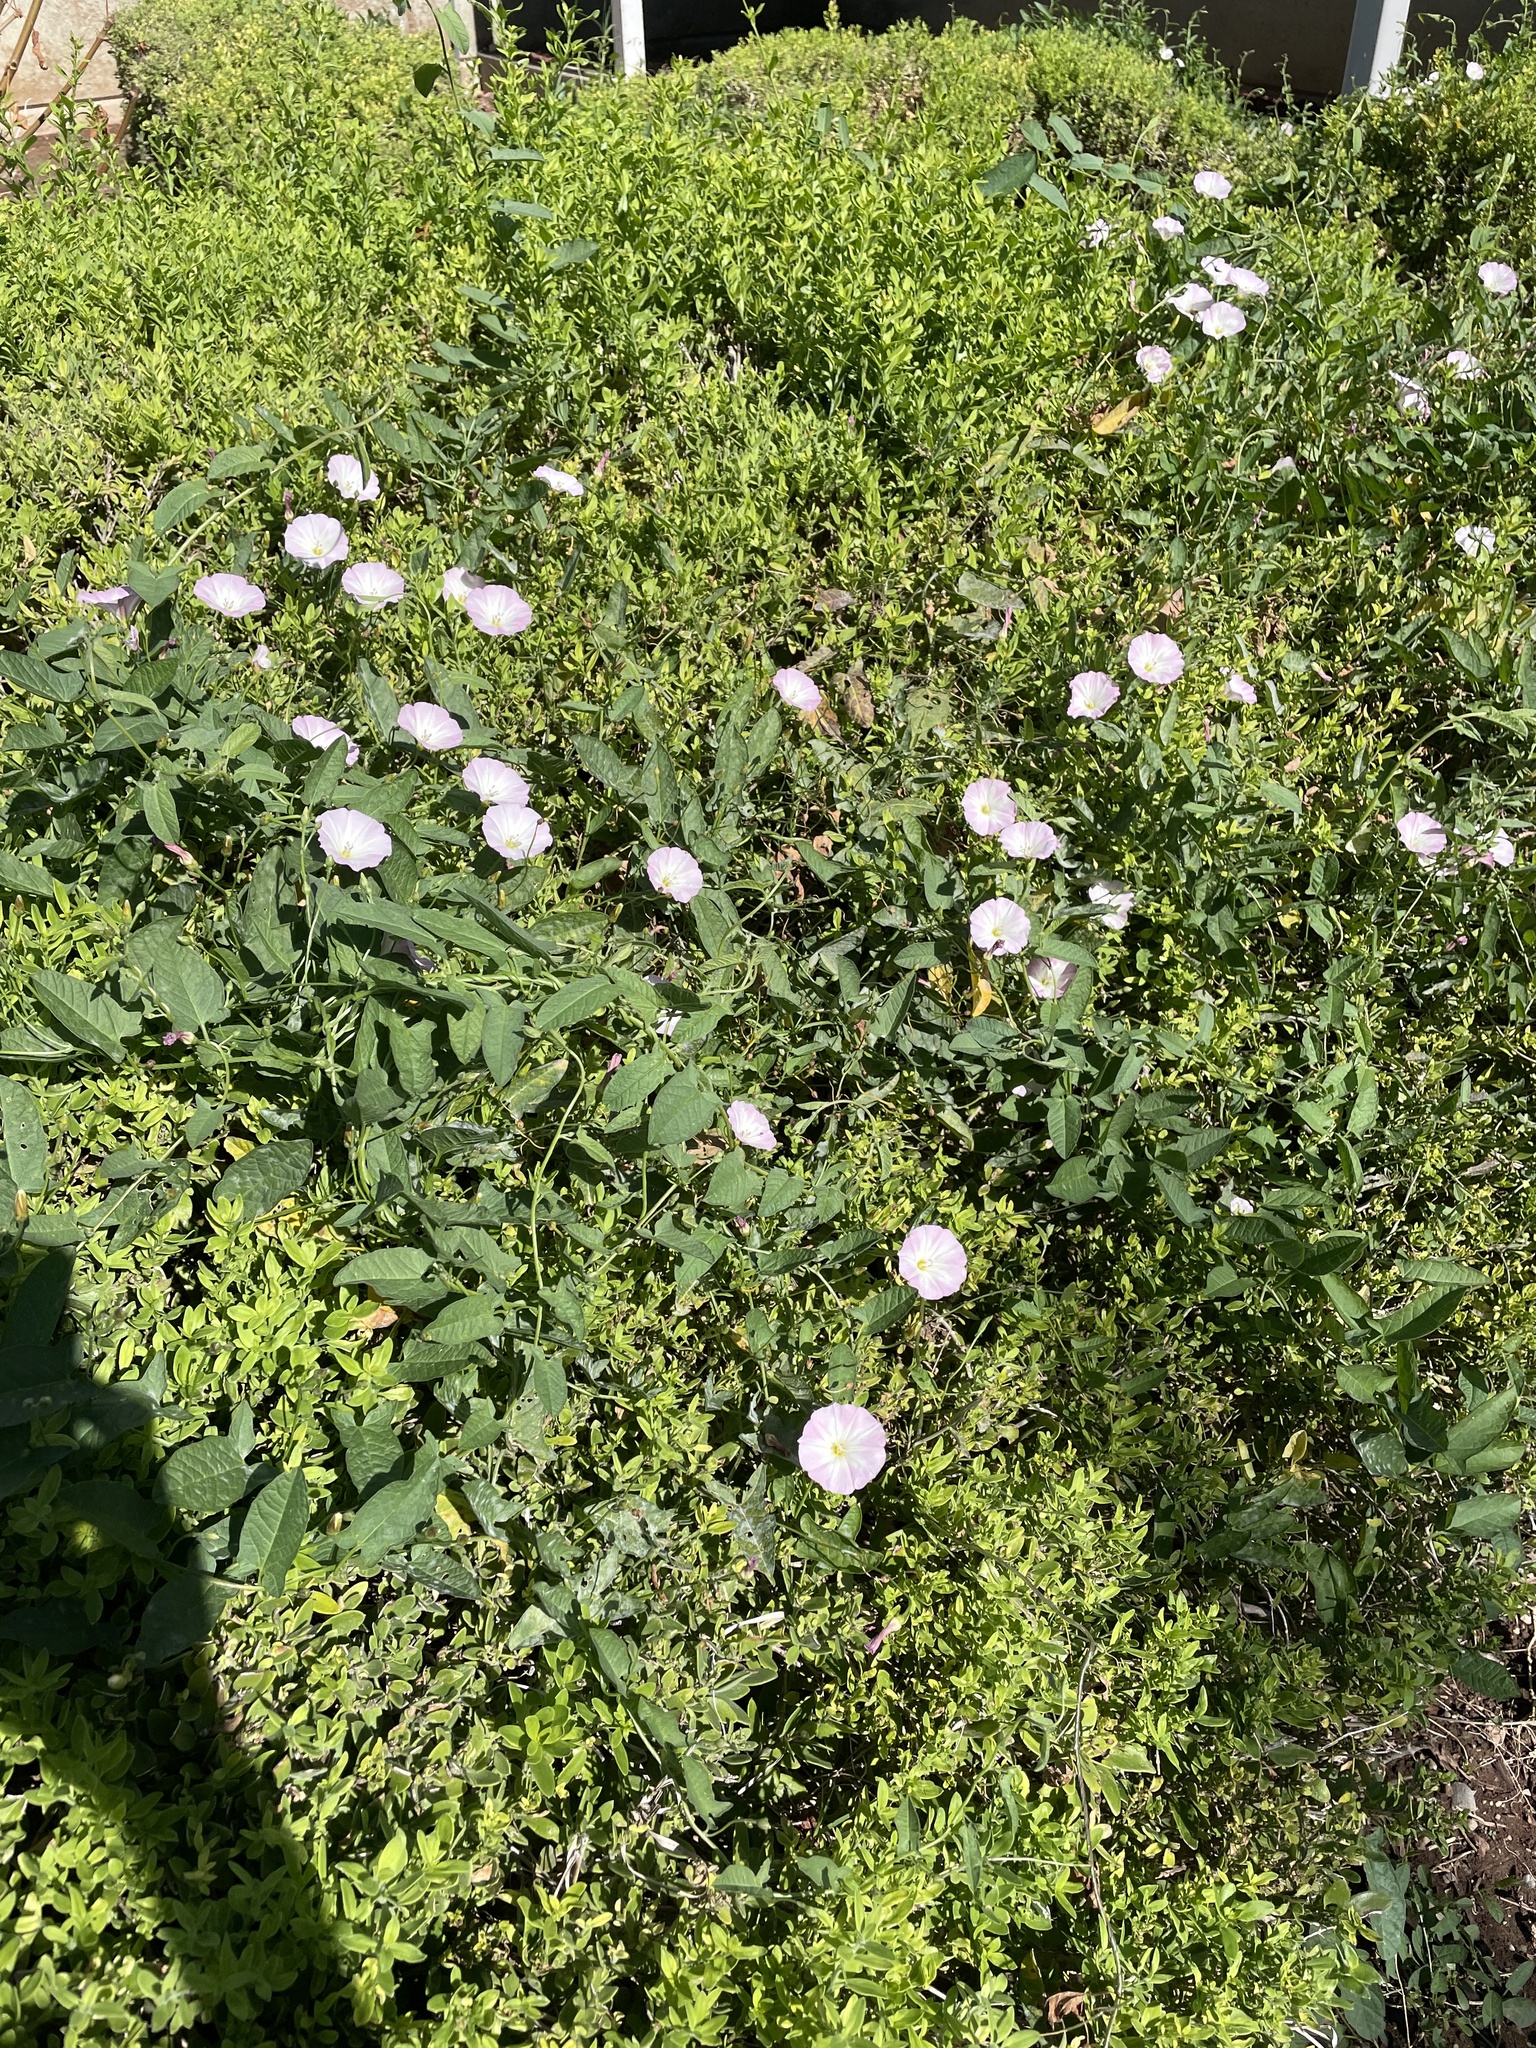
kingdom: Plantae
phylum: Tracheophyta
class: Magnoliopsida
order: Solanales
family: Convolvulaceae
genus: Convolvulus
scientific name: Convolvulus arvensis
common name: Field bindweed
